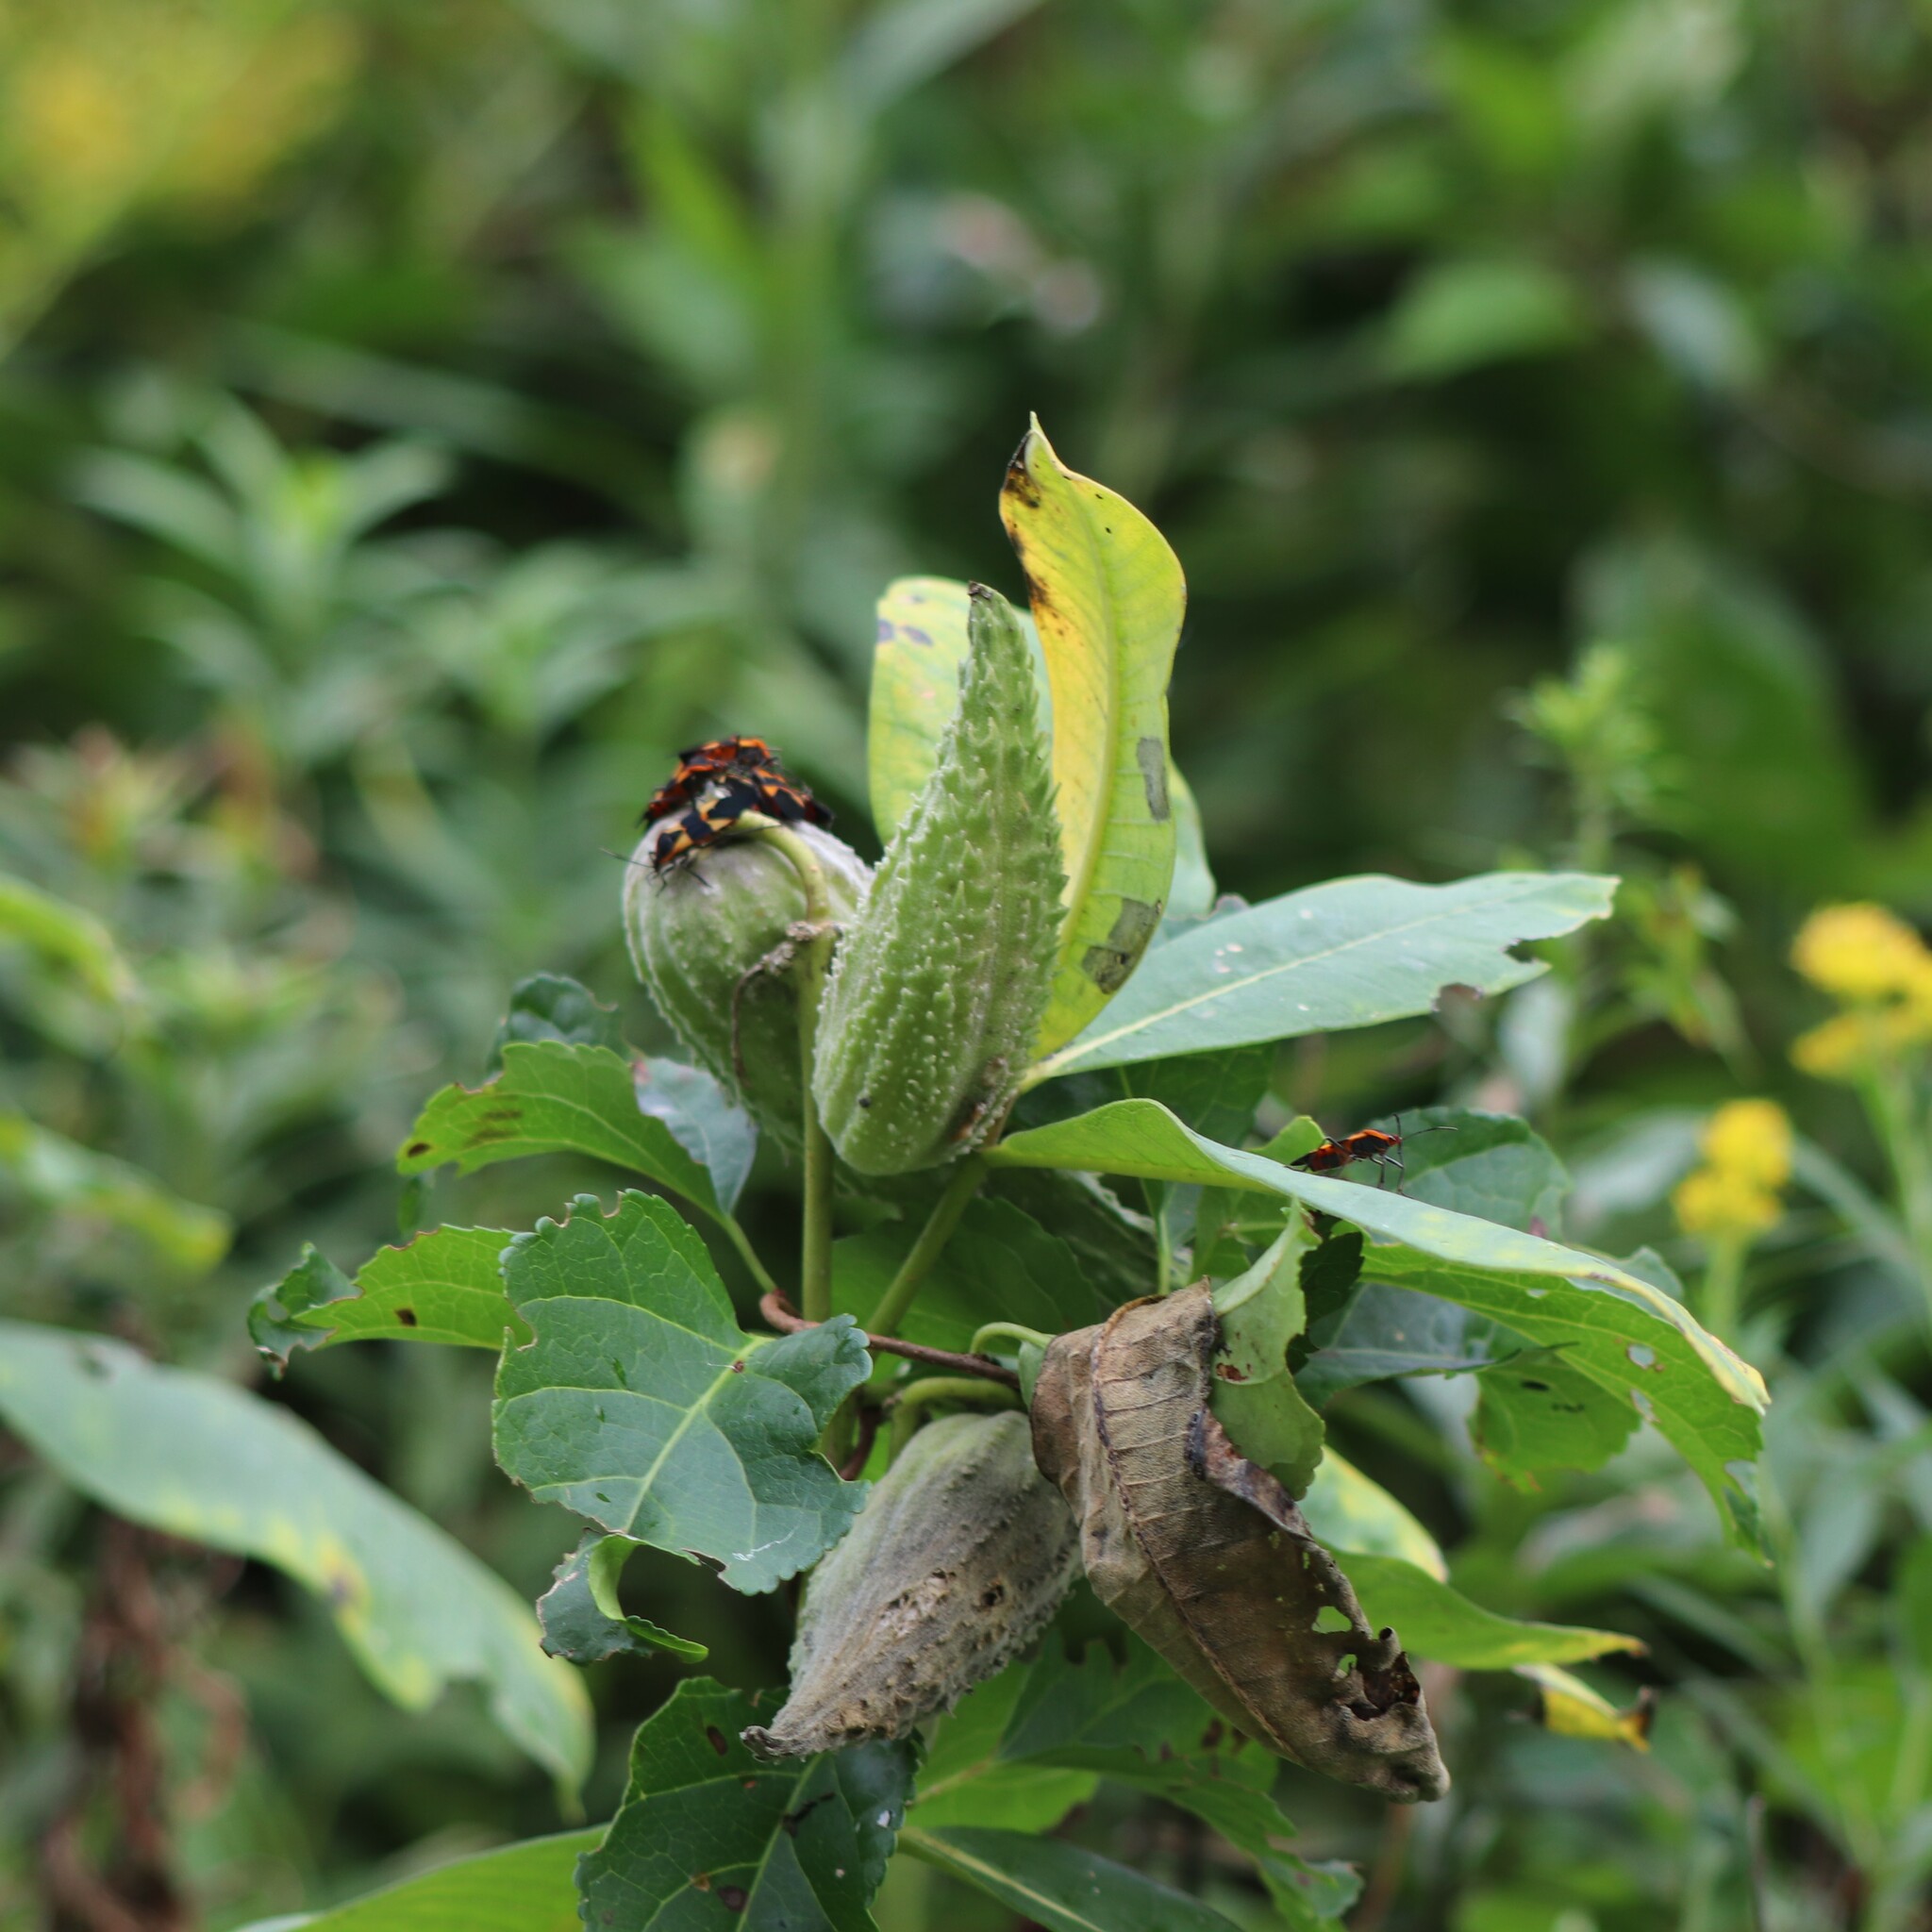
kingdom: Plantae
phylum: Tracheophyta
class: Magnoliopsida
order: Gentianales
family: Apocynaceae
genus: Asclepias
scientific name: Asclepias syriaca
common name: Common milkweed
